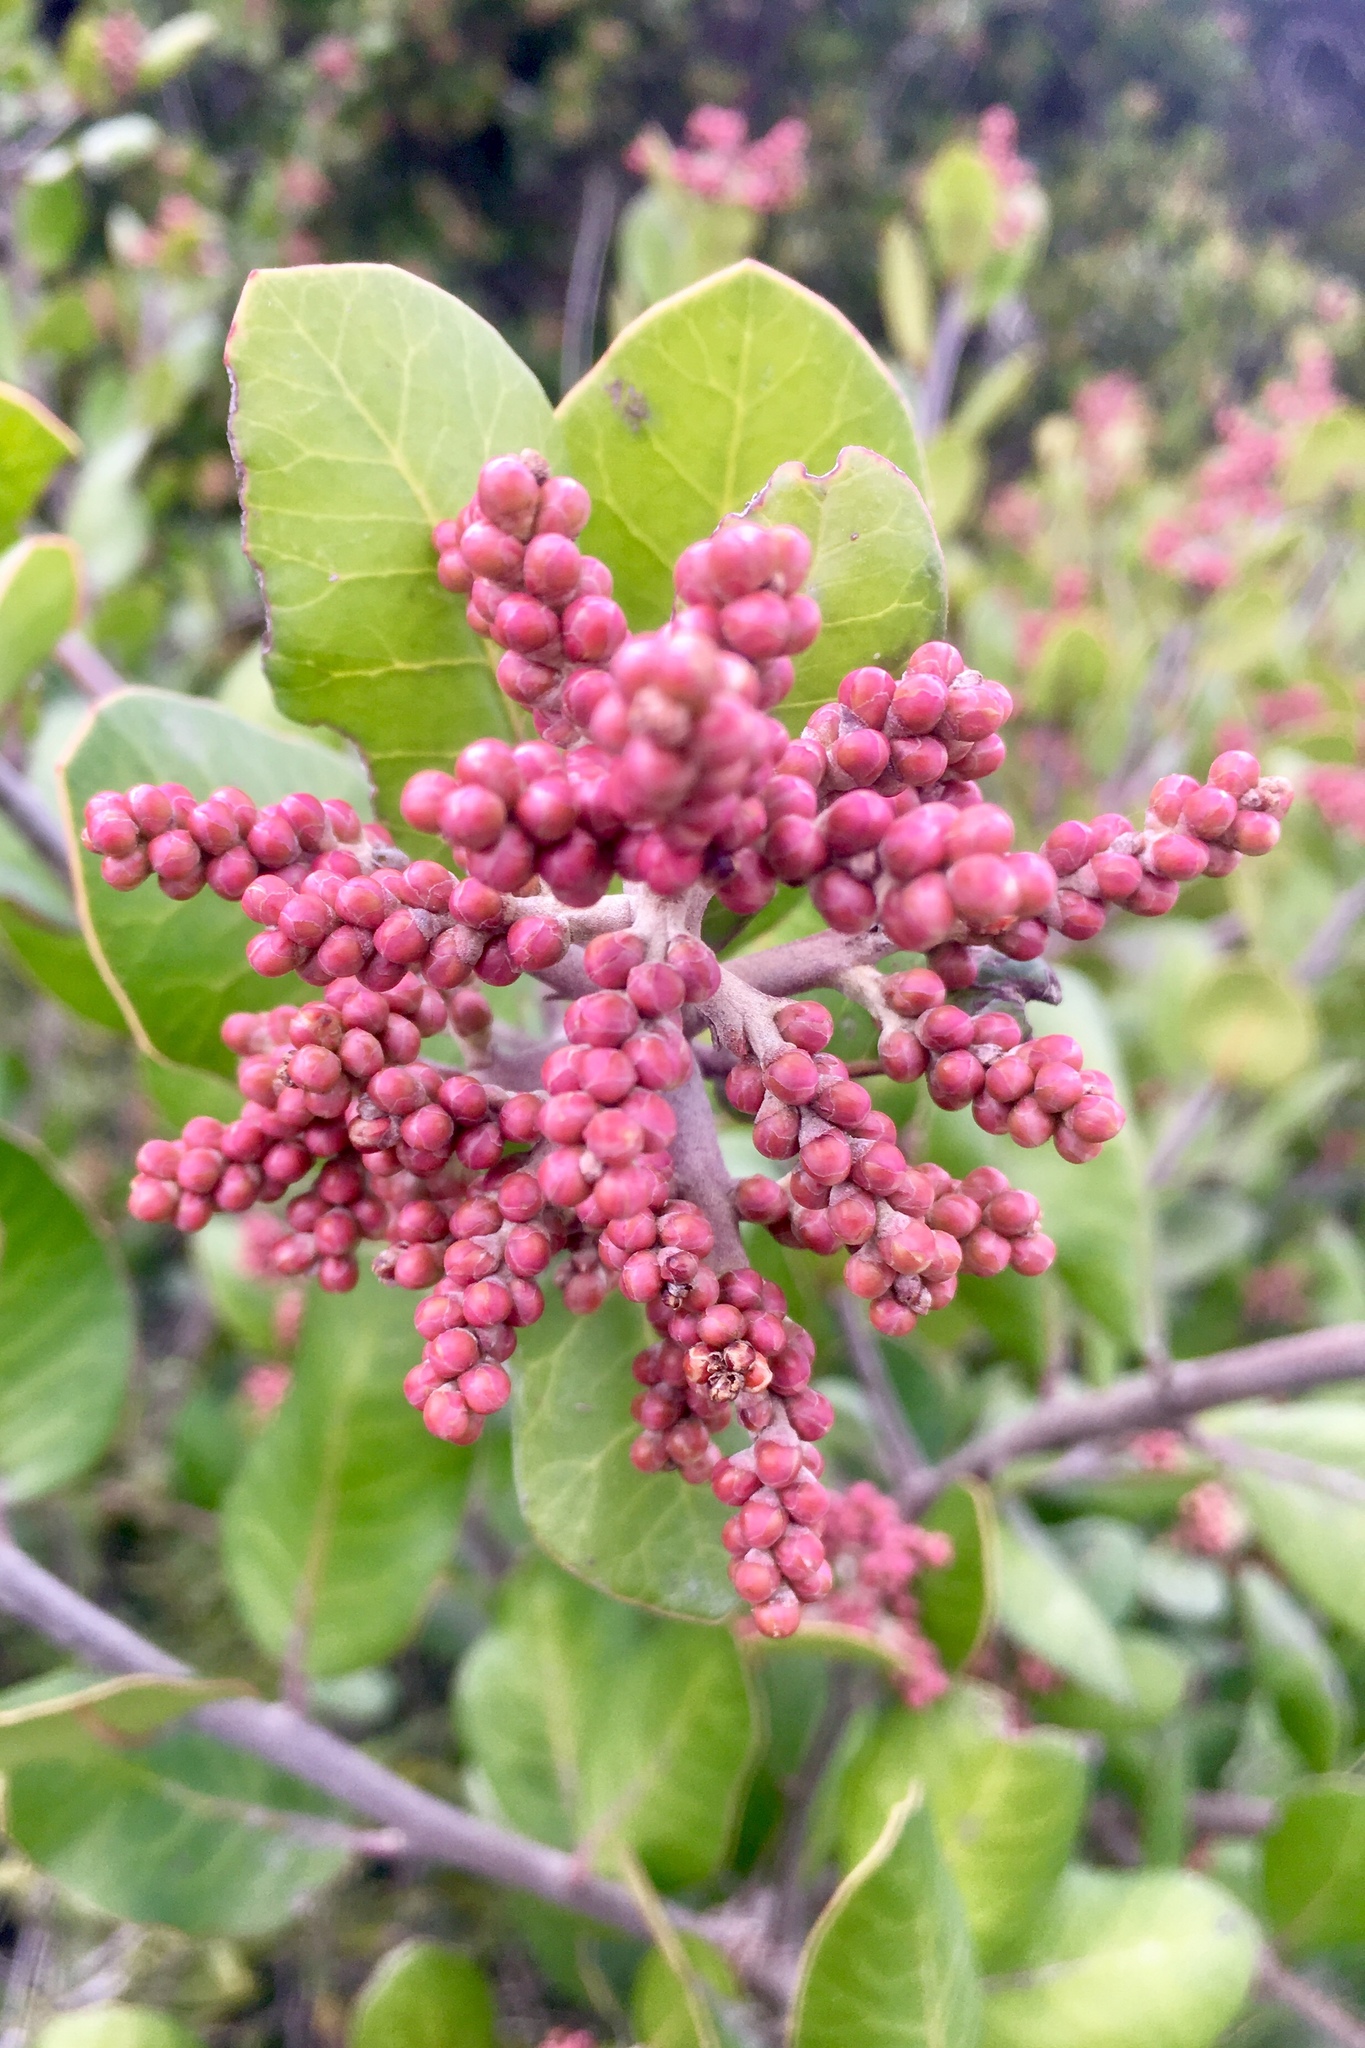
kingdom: Plantae
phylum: Tracheophyta
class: Magnoliopsida
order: Sapindales
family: Anacardiaceae
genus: Rhus
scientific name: Rhus integrifolia
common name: Lemonade sumac
